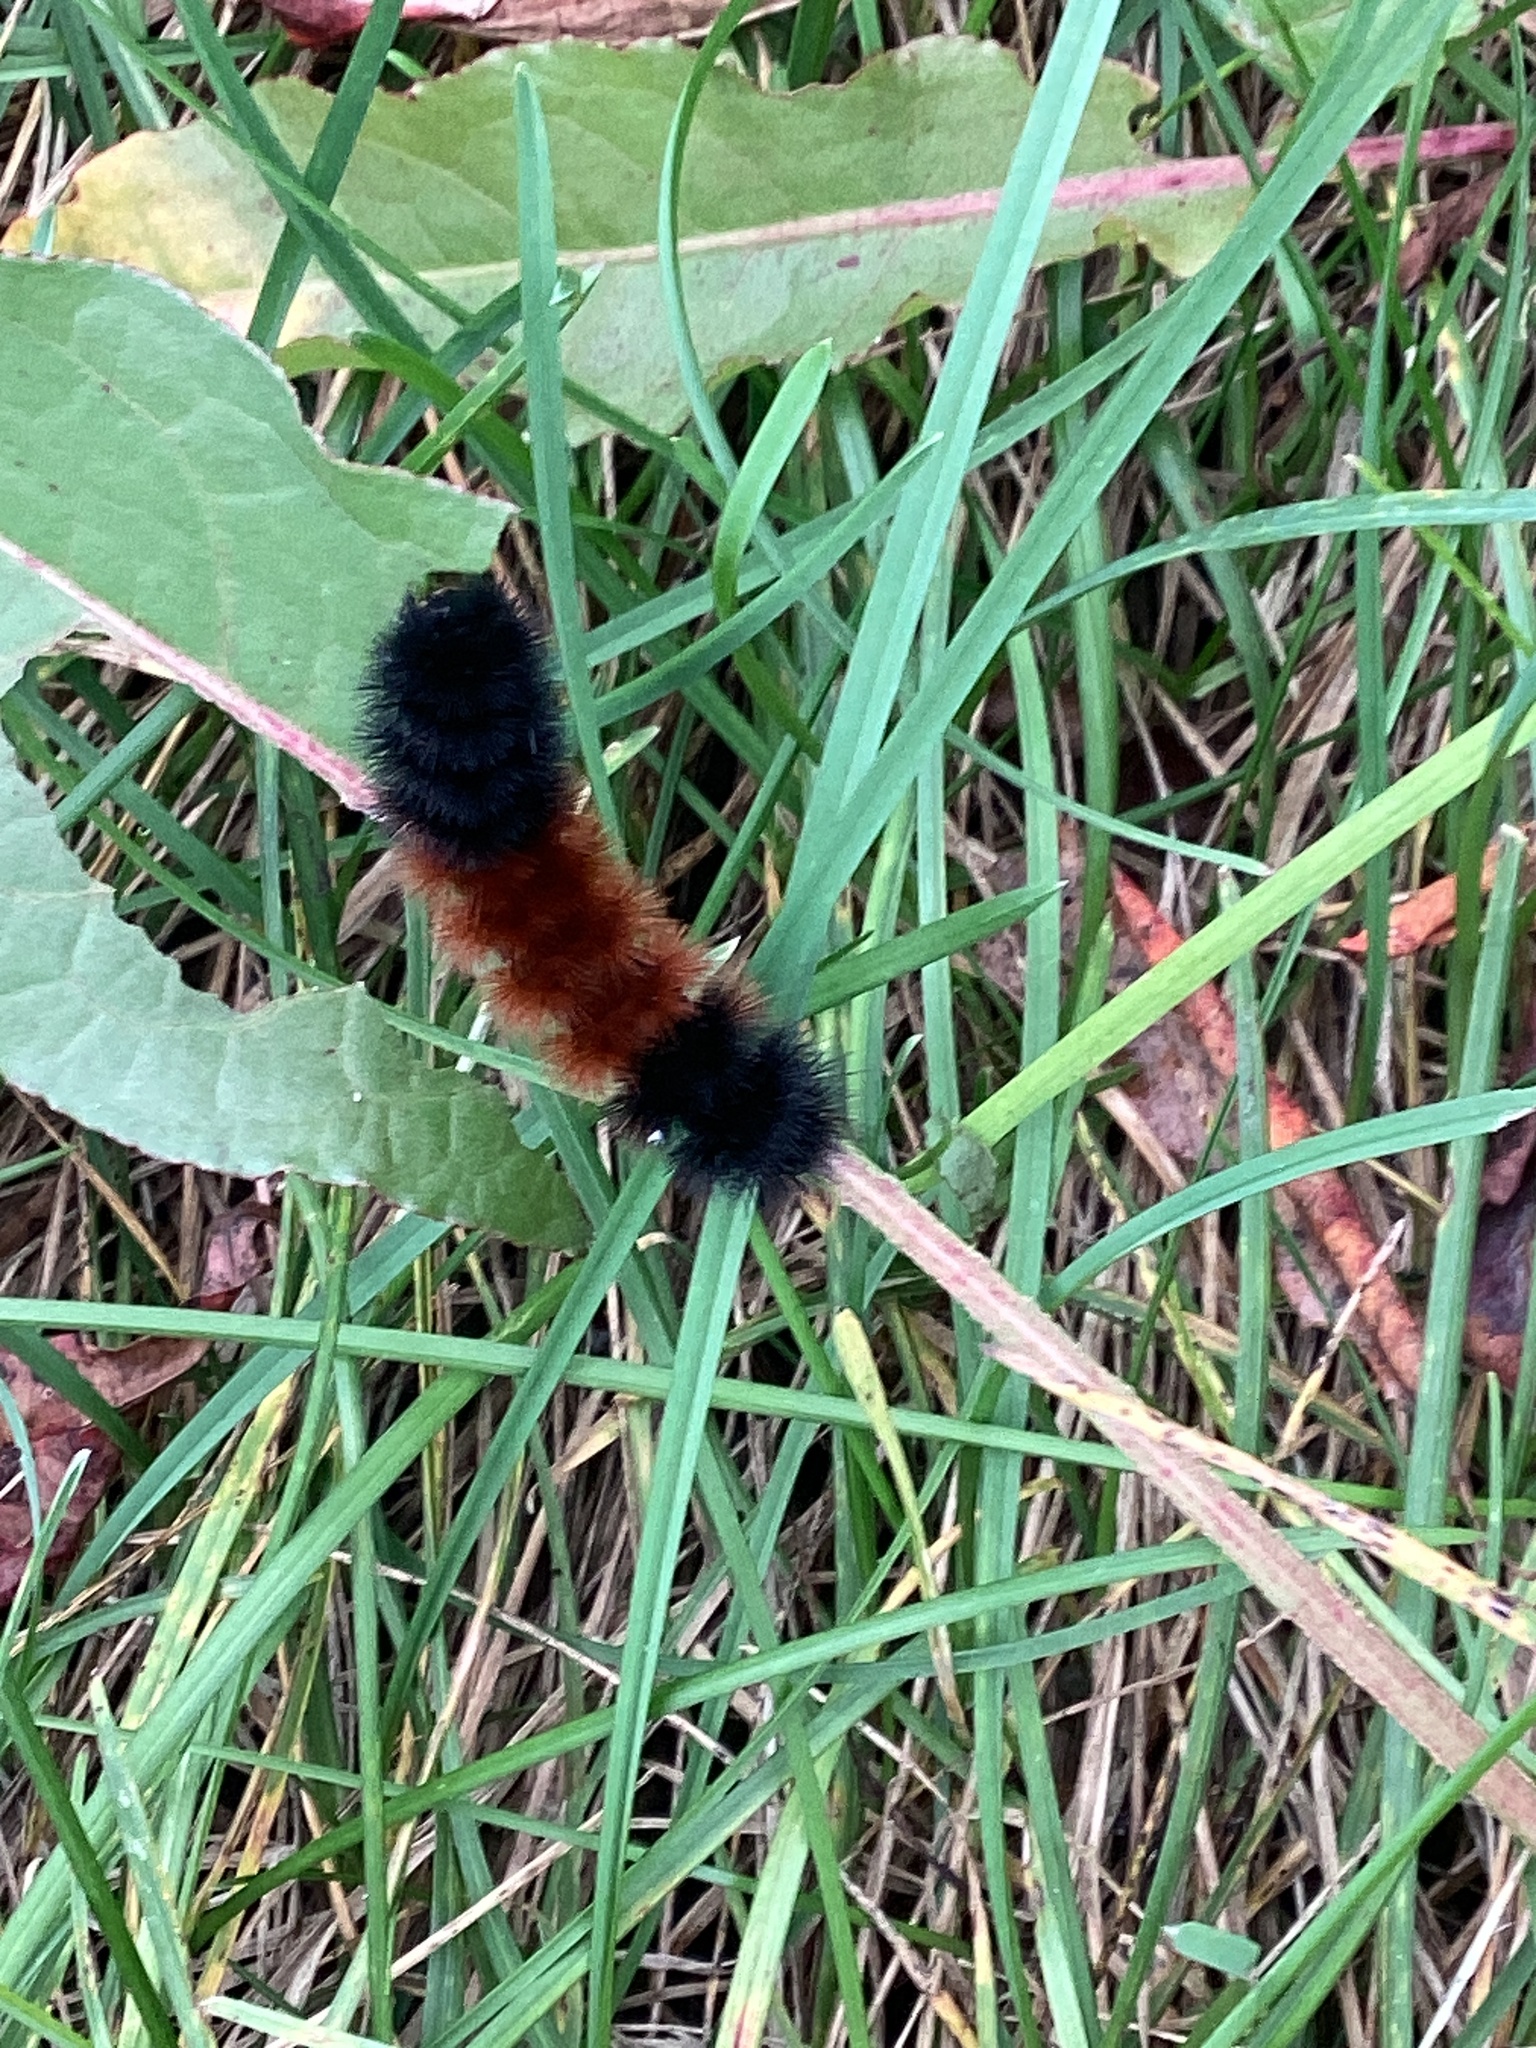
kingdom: Animalia
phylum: Arthropoda
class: Insecta
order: Lepidoptera
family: Erebidae
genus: Pyrrharctia
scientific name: Pyrrharctia isabella
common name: Isabella tiger moth
